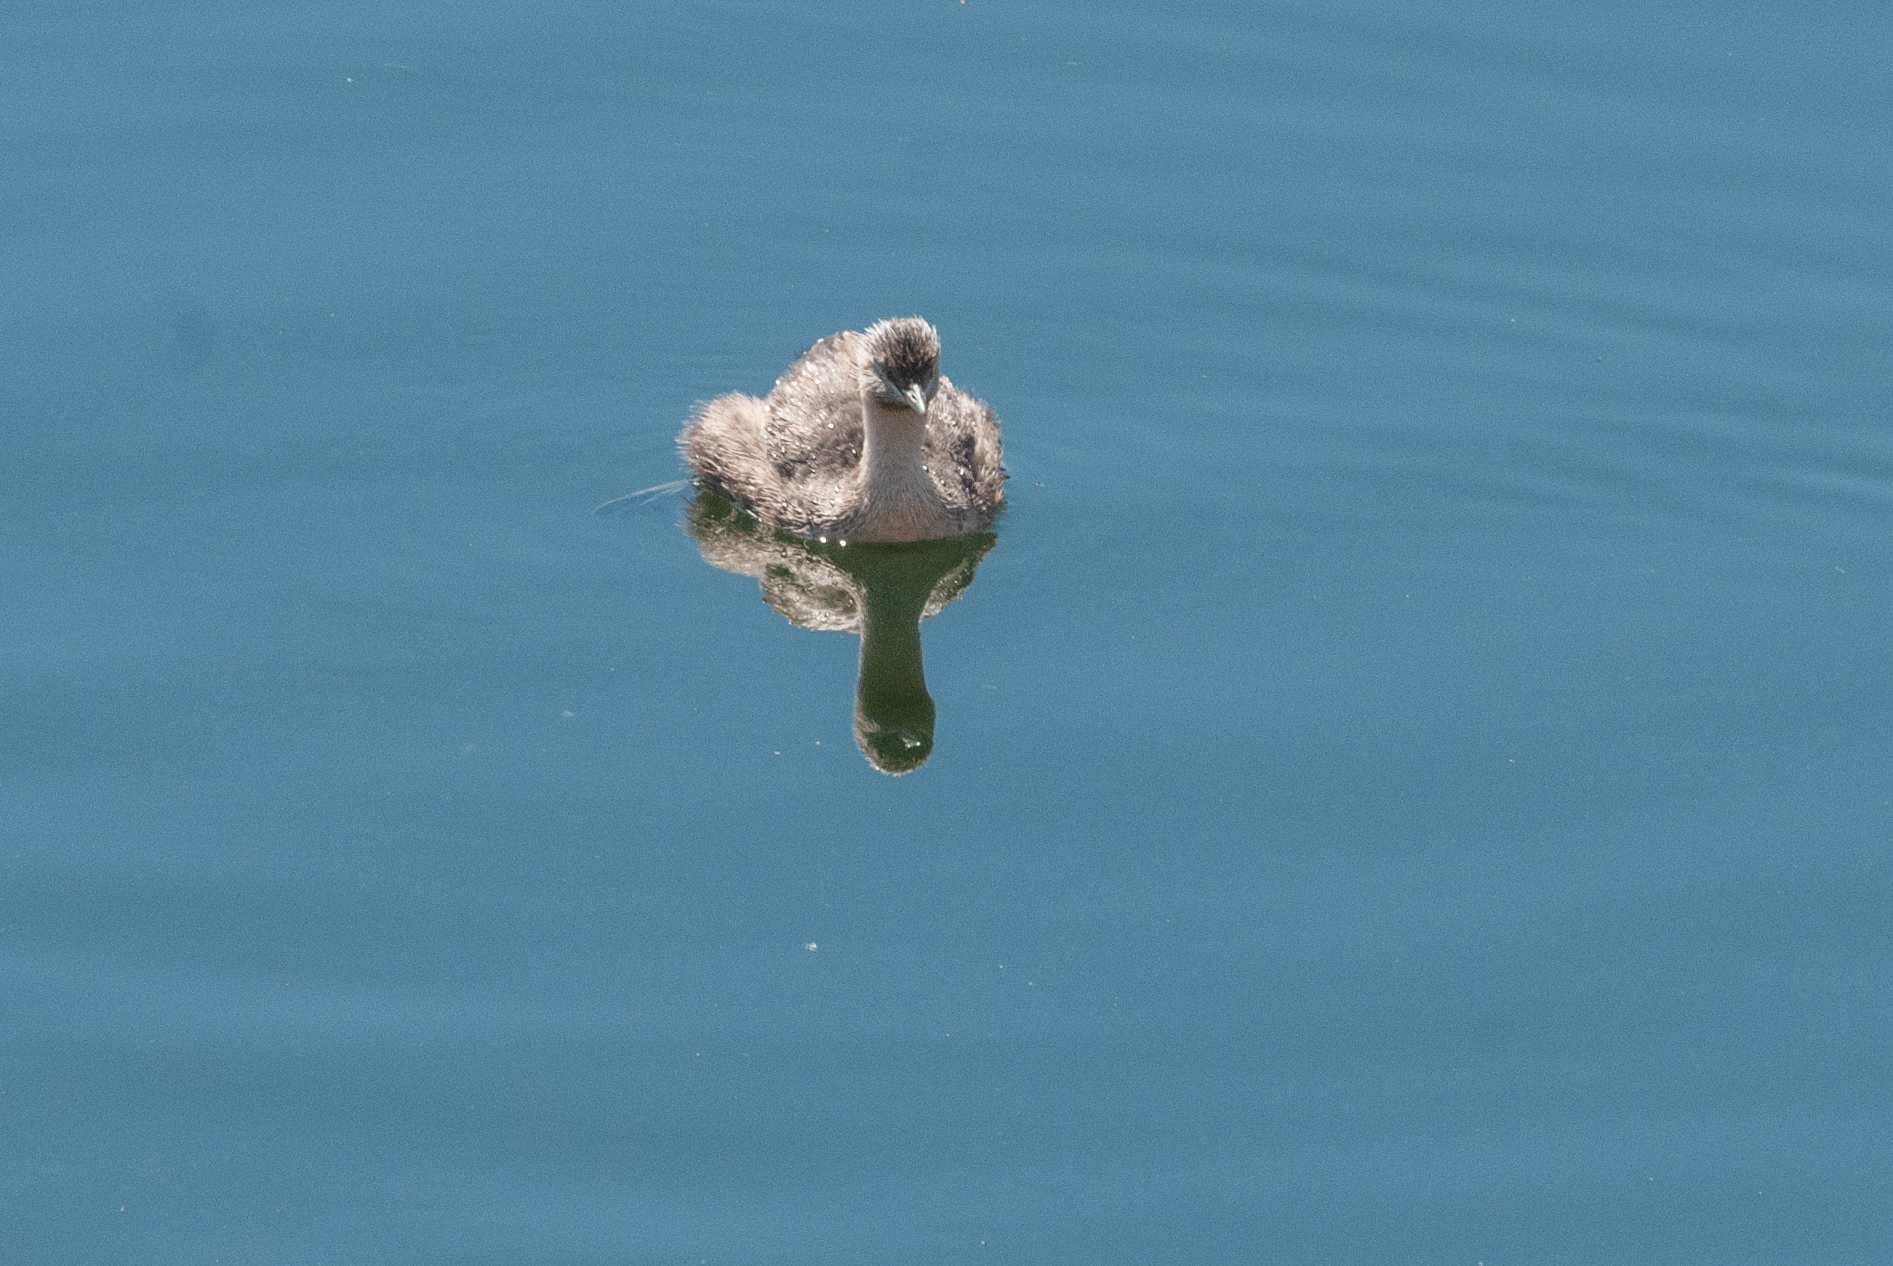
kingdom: Animalia
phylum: Chordata
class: Aves
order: Podicipediformes
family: Podicipedidae
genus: Poliocephalus
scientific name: Poliocephalus poliocephalus
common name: Hoary-headed grebe
